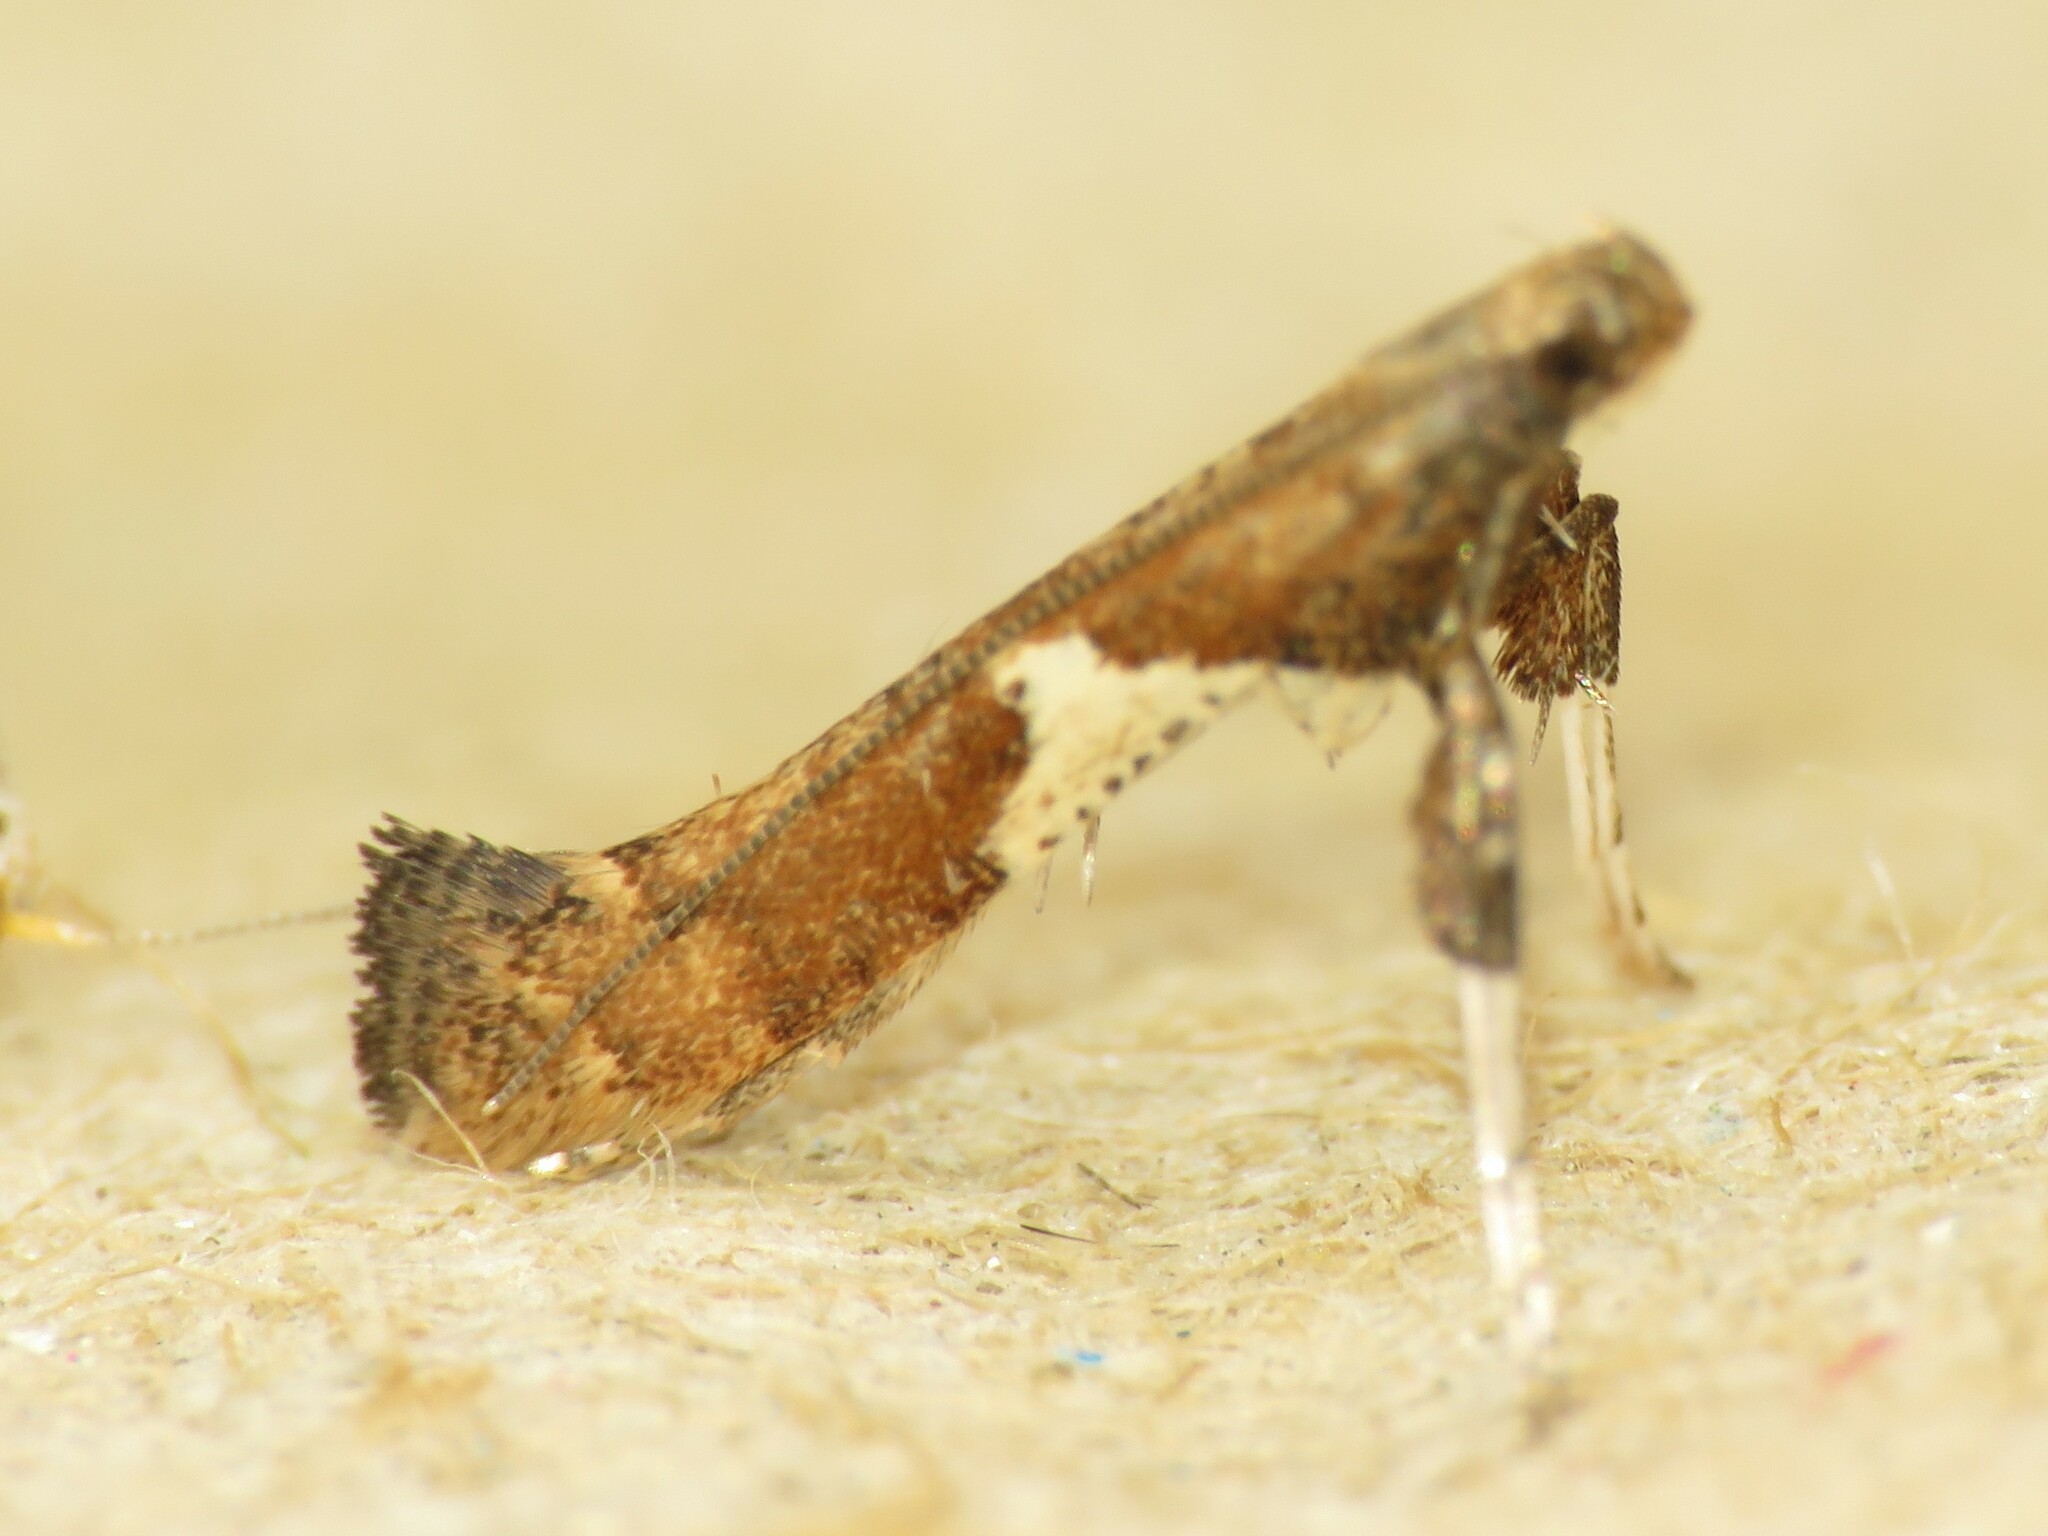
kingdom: Animalia
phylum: Arthropoda
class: Insecta
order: Lepidoptera
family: Gracillariidae
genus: Caloptilia
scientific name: Caloptilia stigmatella
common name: White-triangle slender
